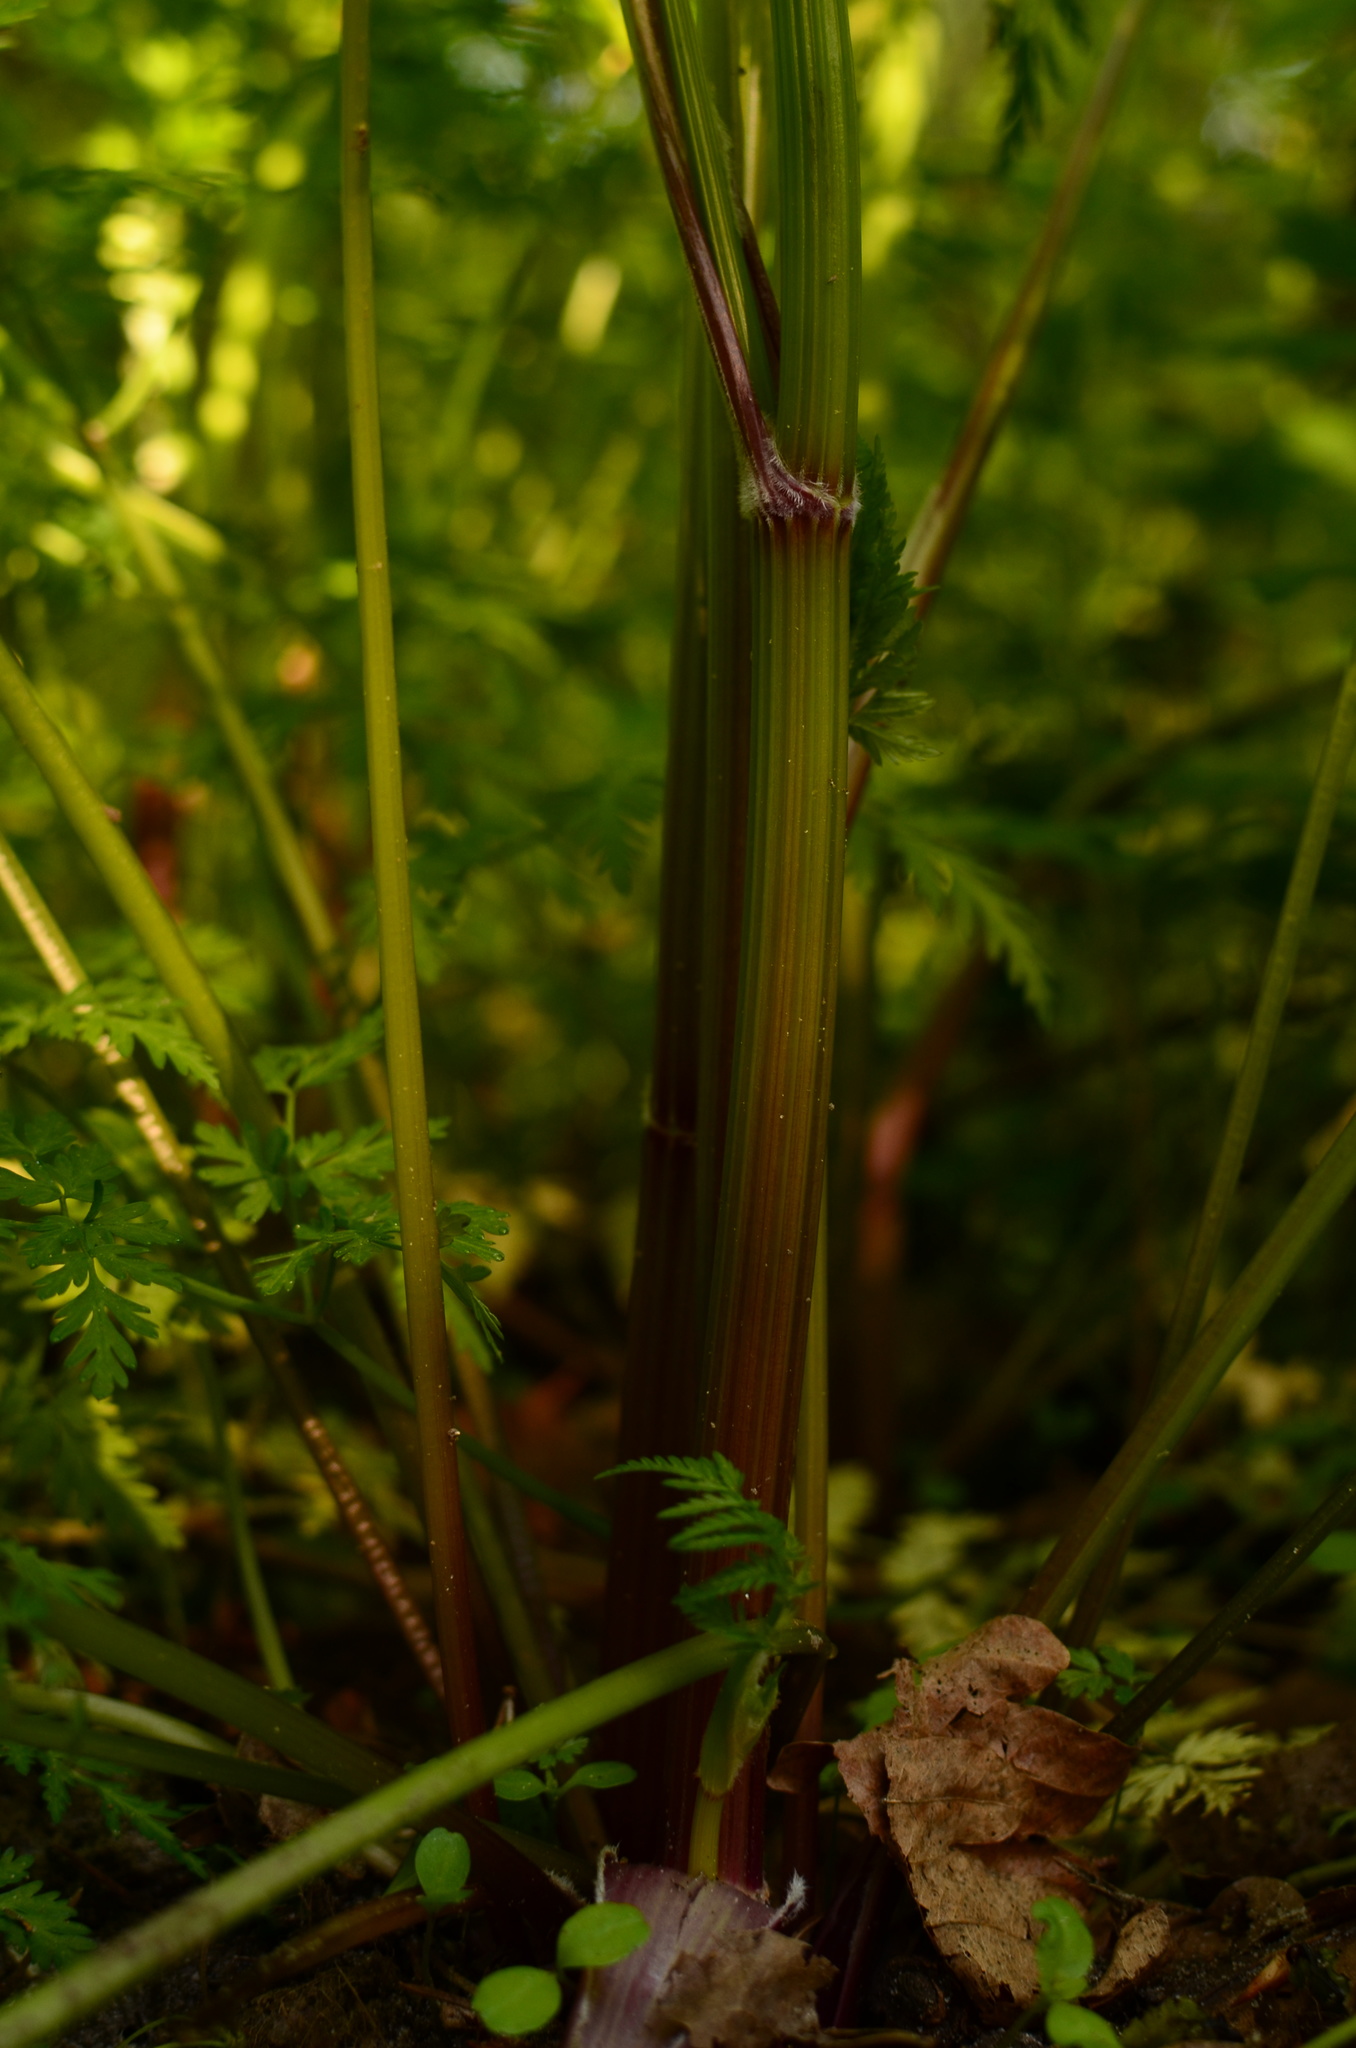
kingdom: Plantae
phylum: Tracheophyta
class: Magnoliopsida
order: Apiales
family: Apiaceae
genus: Anthriscus
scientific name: Anthriscus sylvestris
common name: Cow parsley
